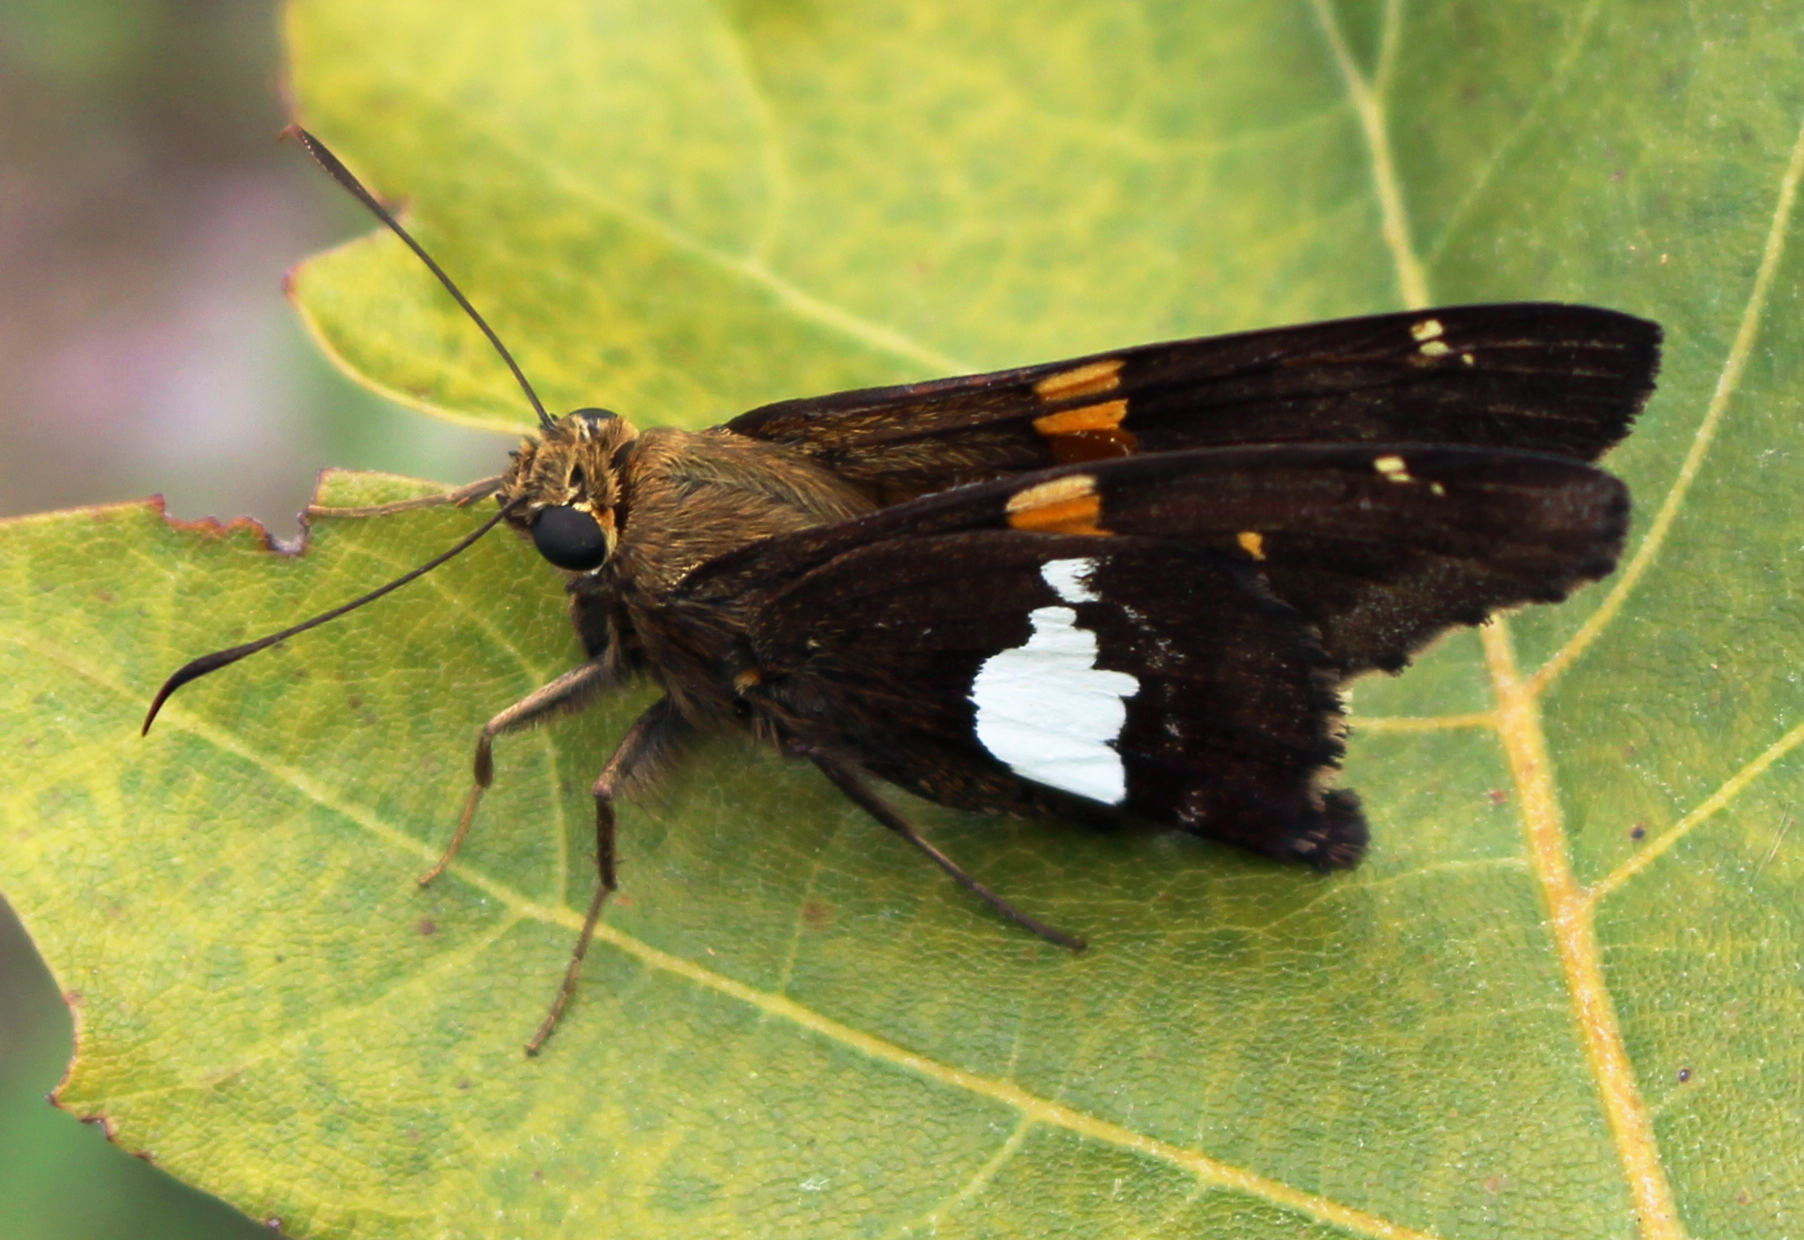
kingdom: Animalia
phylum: Arthropoda
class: Insecta
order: Lepidoptera
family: Hesperiidae
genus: Epargyreus
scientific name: Epargyreus clarus
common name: Silver-spotted skipper
